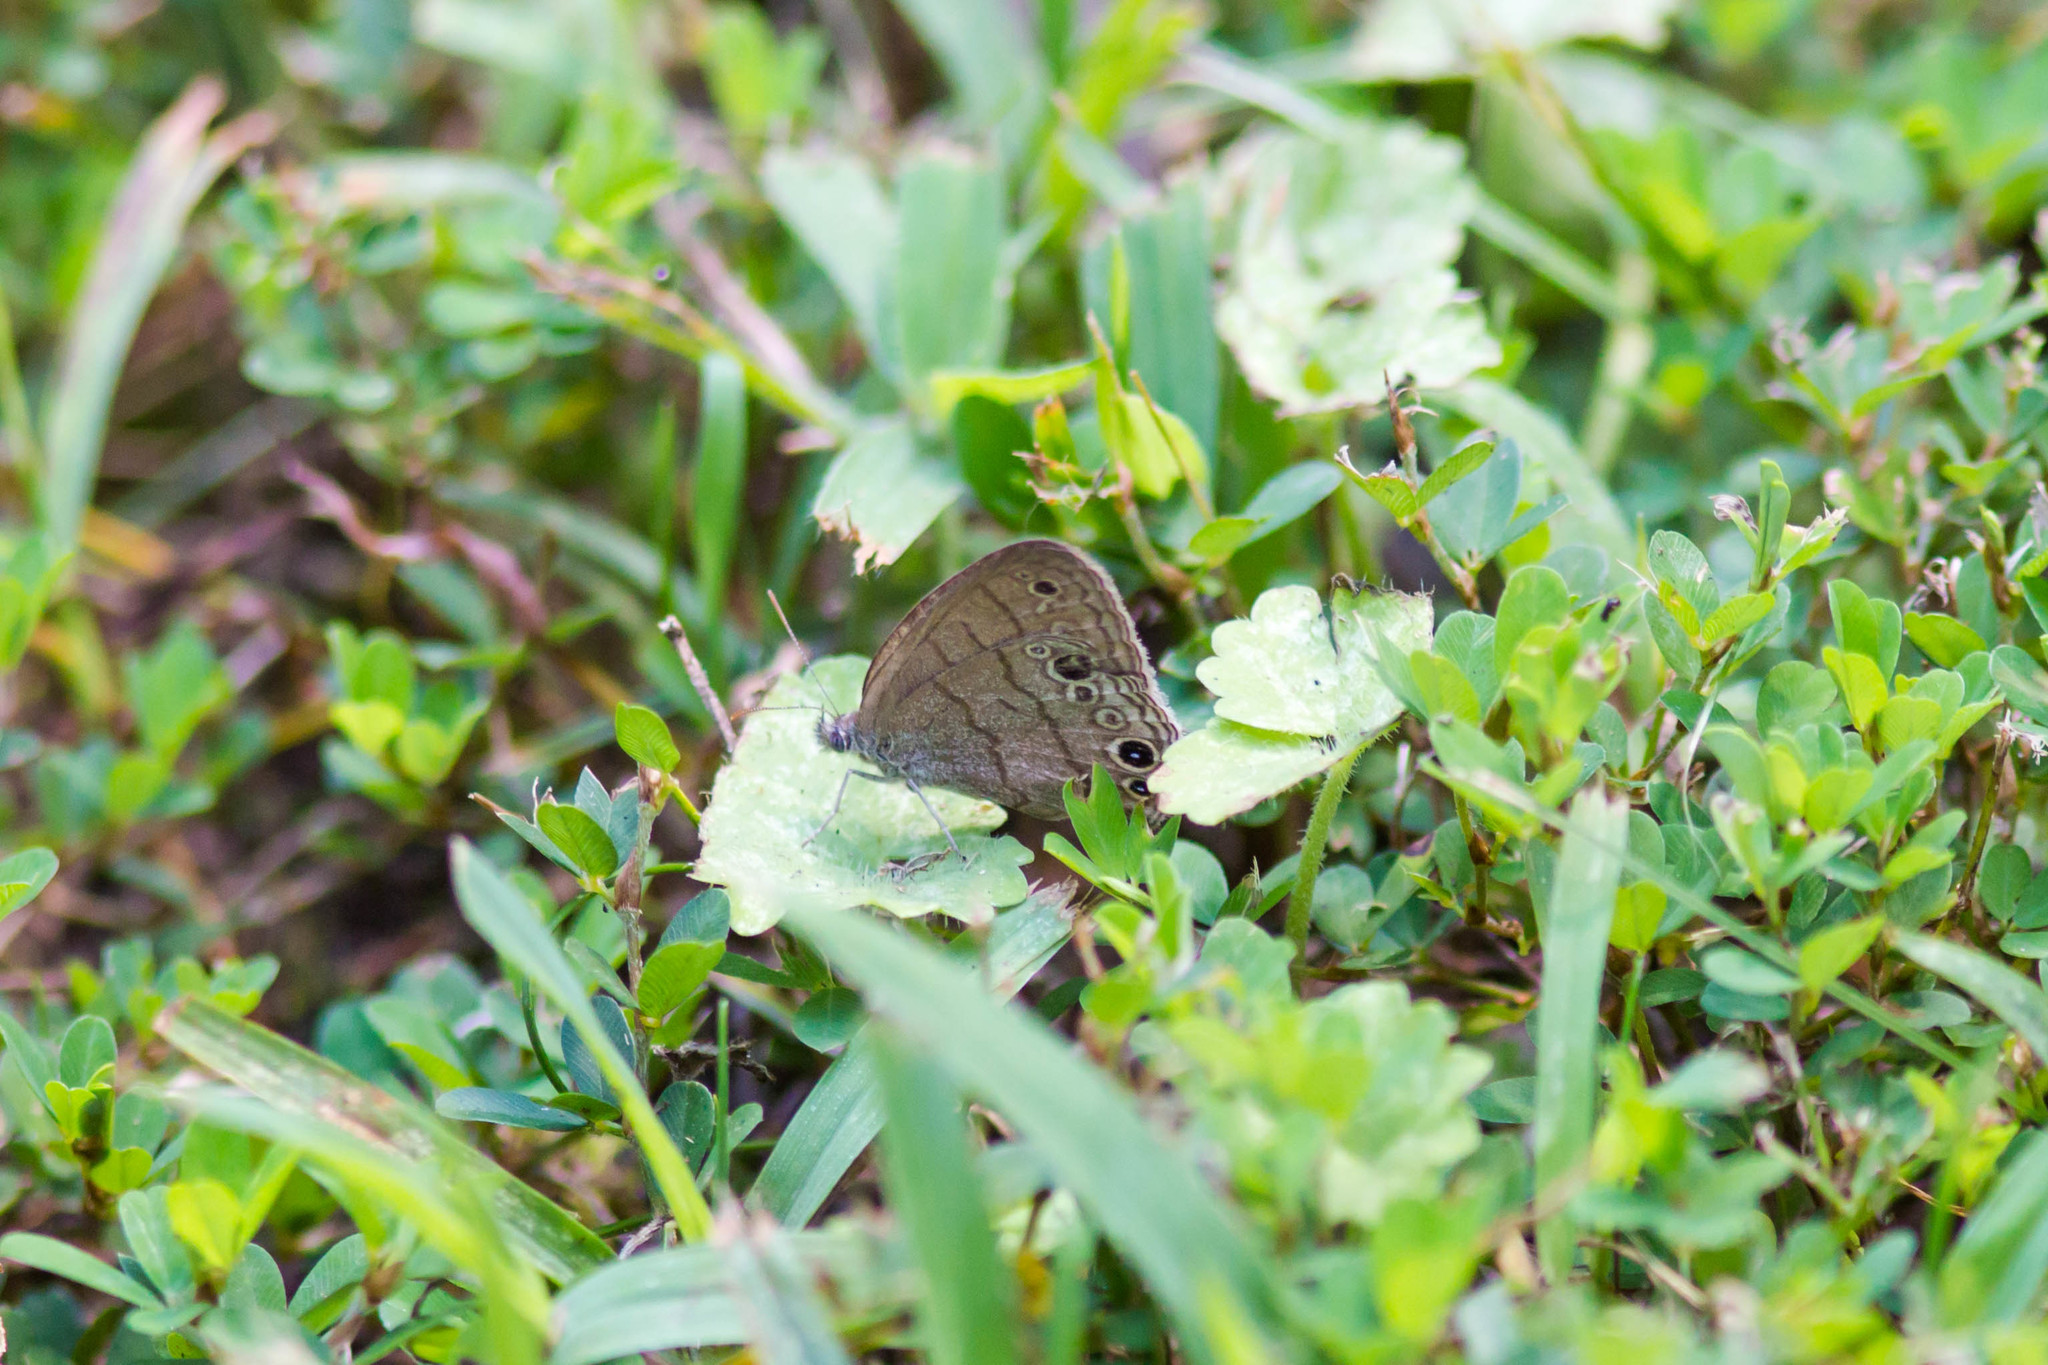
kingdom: Animalia
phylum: Arthropoda
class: Insecta
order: Lepidoptera
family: Nymphalidae
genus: Hermeuptychia
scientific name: Hermeuptychia hermes
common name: Hermes satyr
